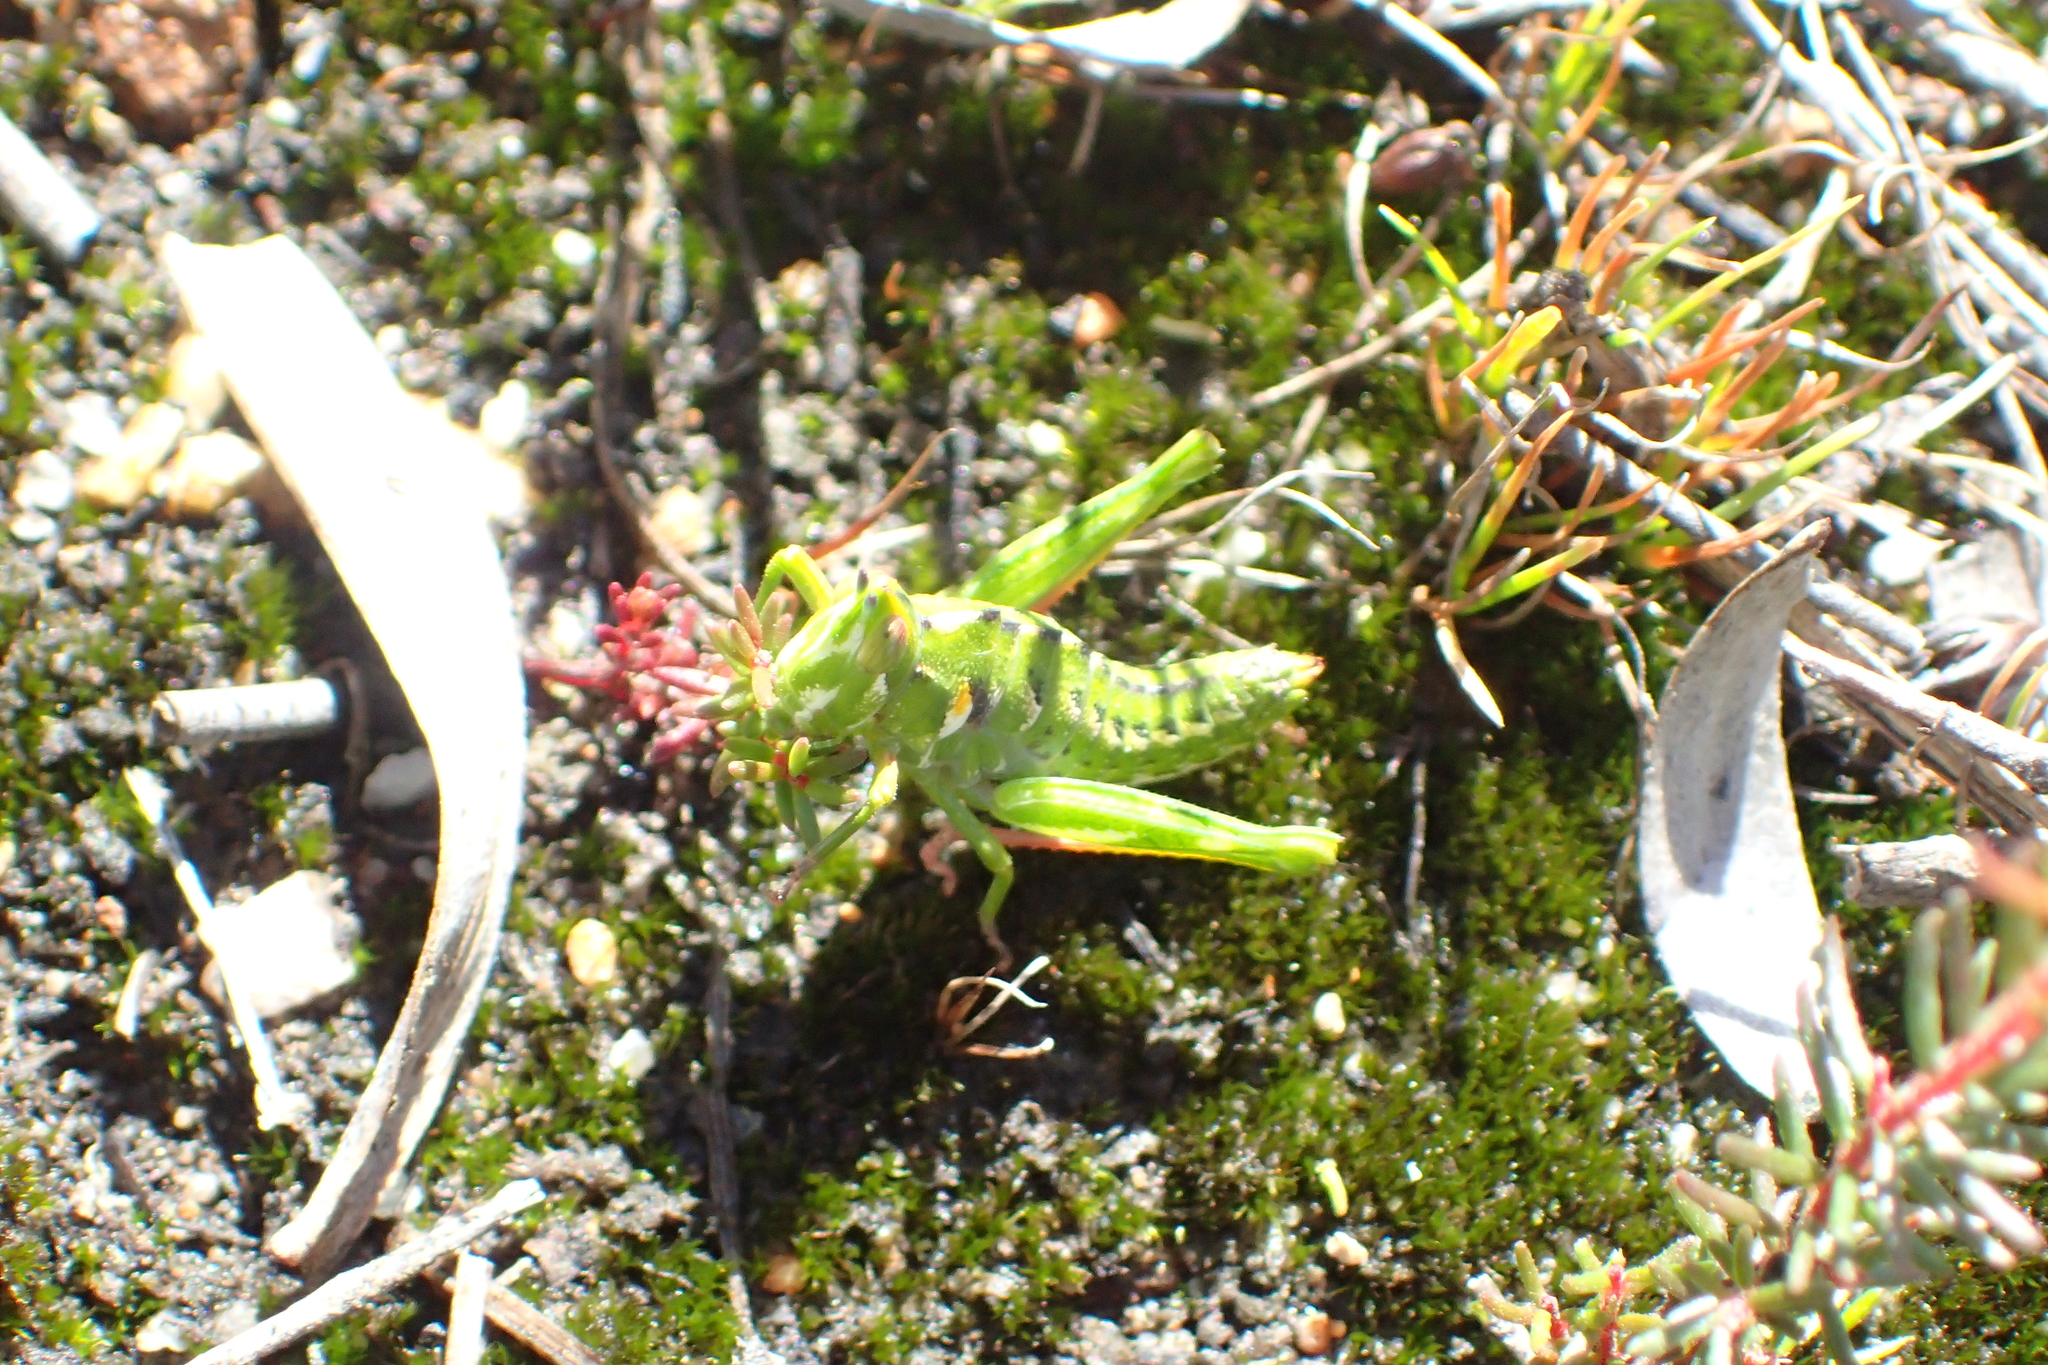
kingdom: Animalia
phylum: Arthropoda
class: Insecta
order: Orthoptera
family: Thericleidae
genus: Thericlesiella
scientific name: Thericlesiella meridionalis
